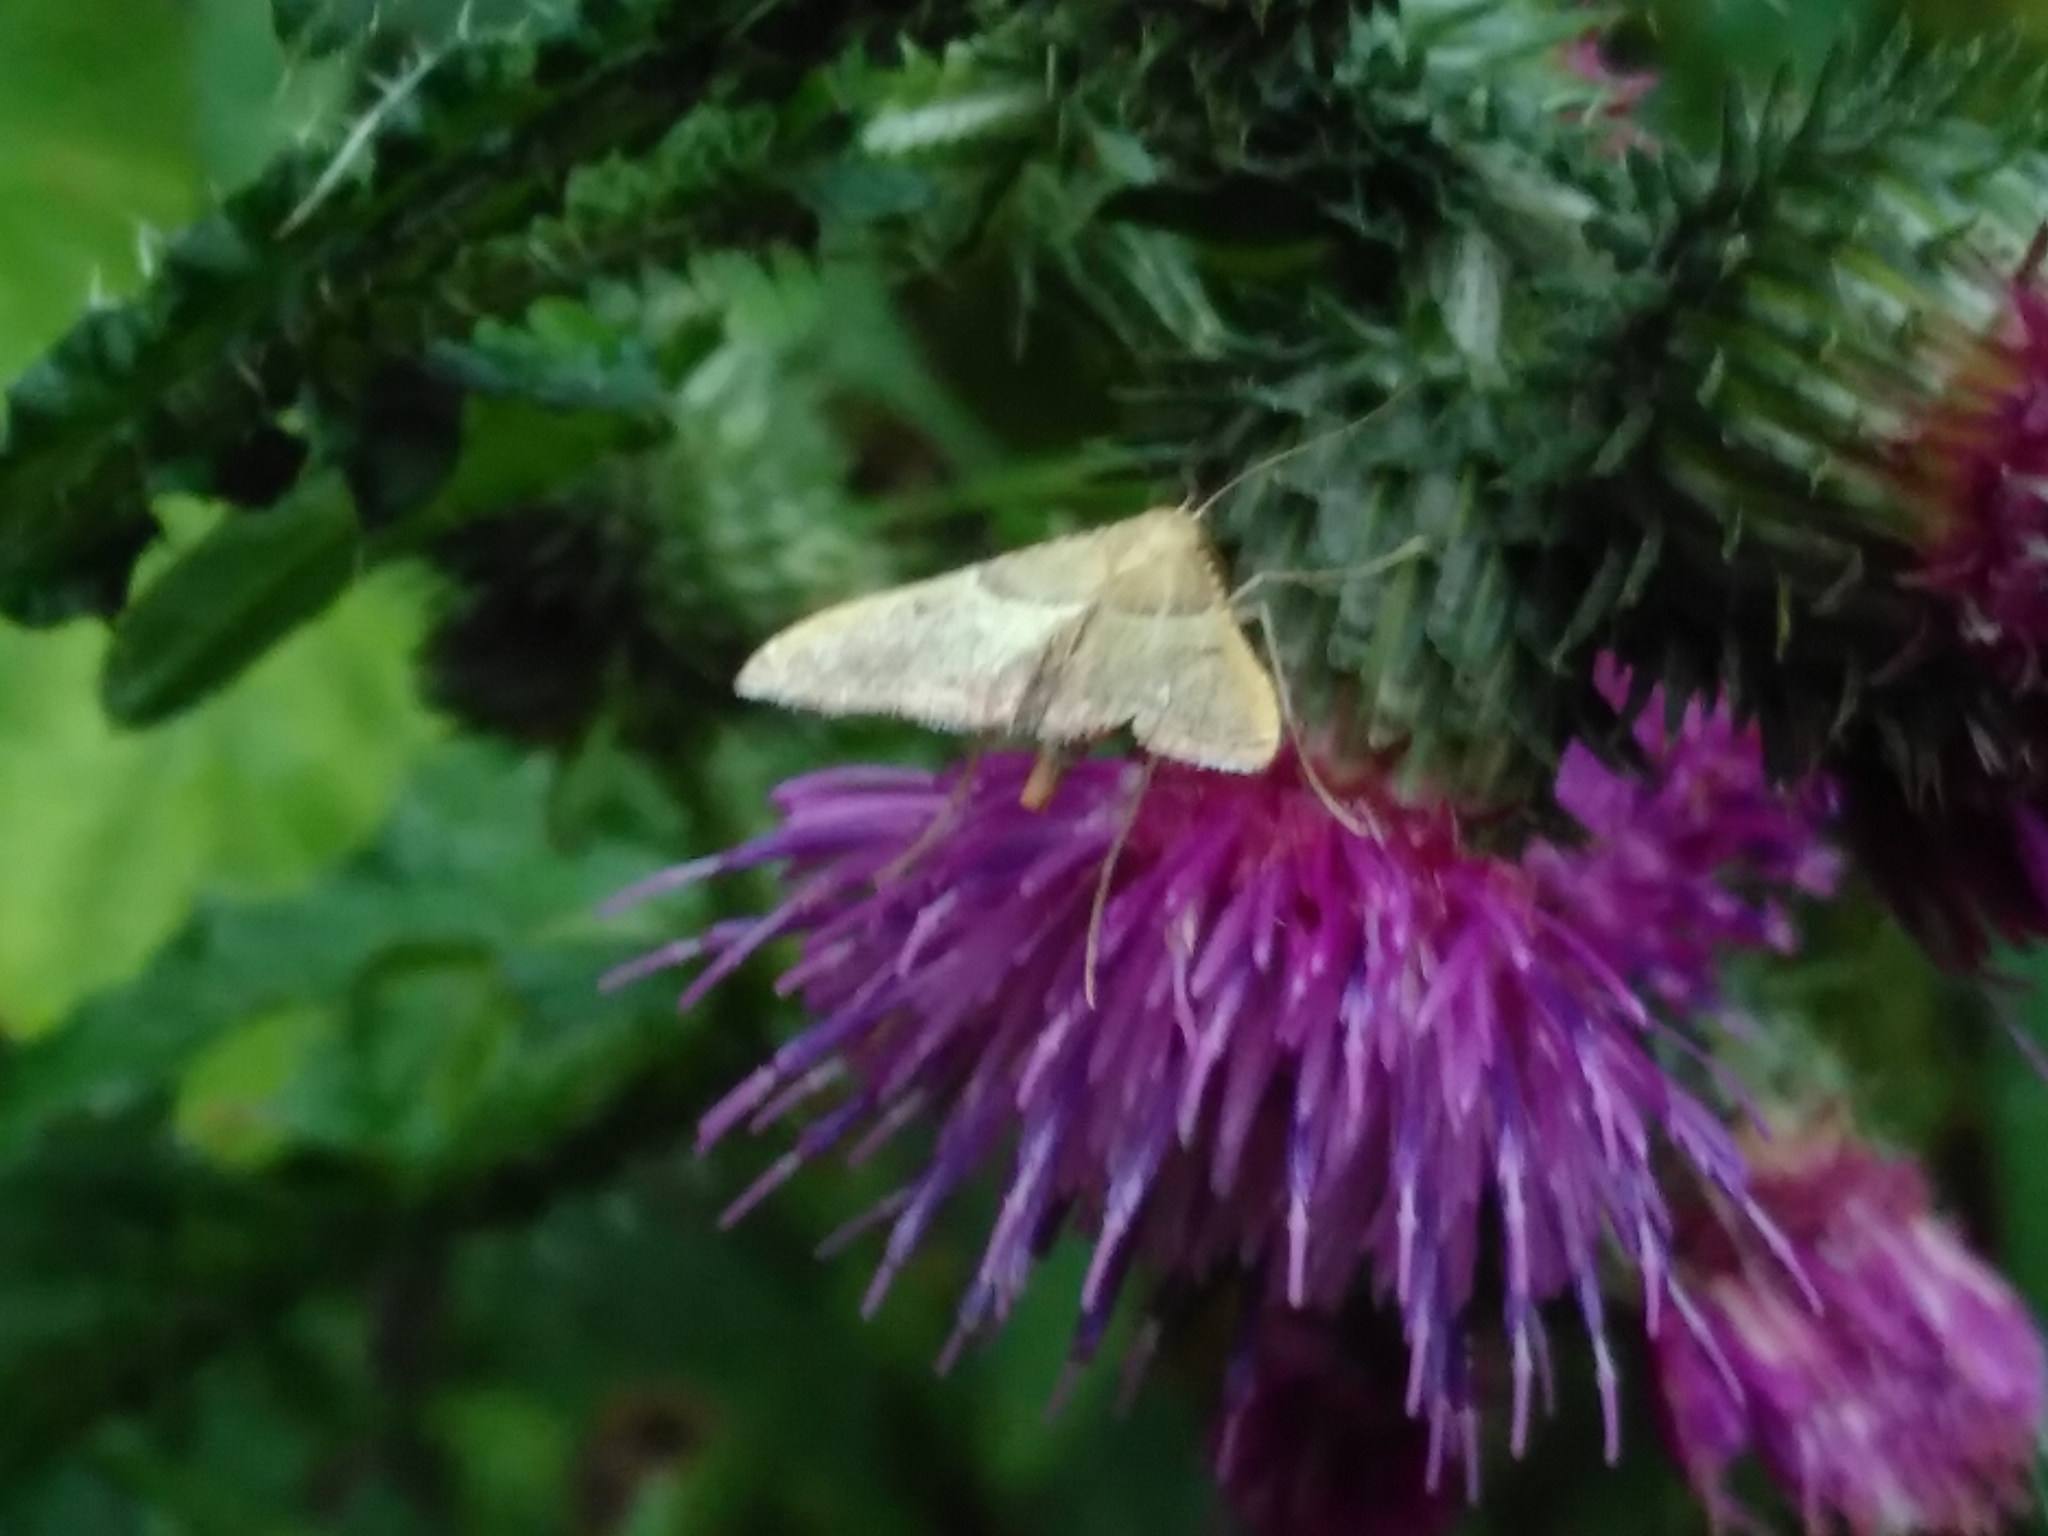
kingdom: Animalia
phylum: Arthropoda
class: Insecta
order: Lepidoptera
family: Pyralidae
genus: Endotricha
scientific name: Endotricha flammealis
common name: Rosy tabby
